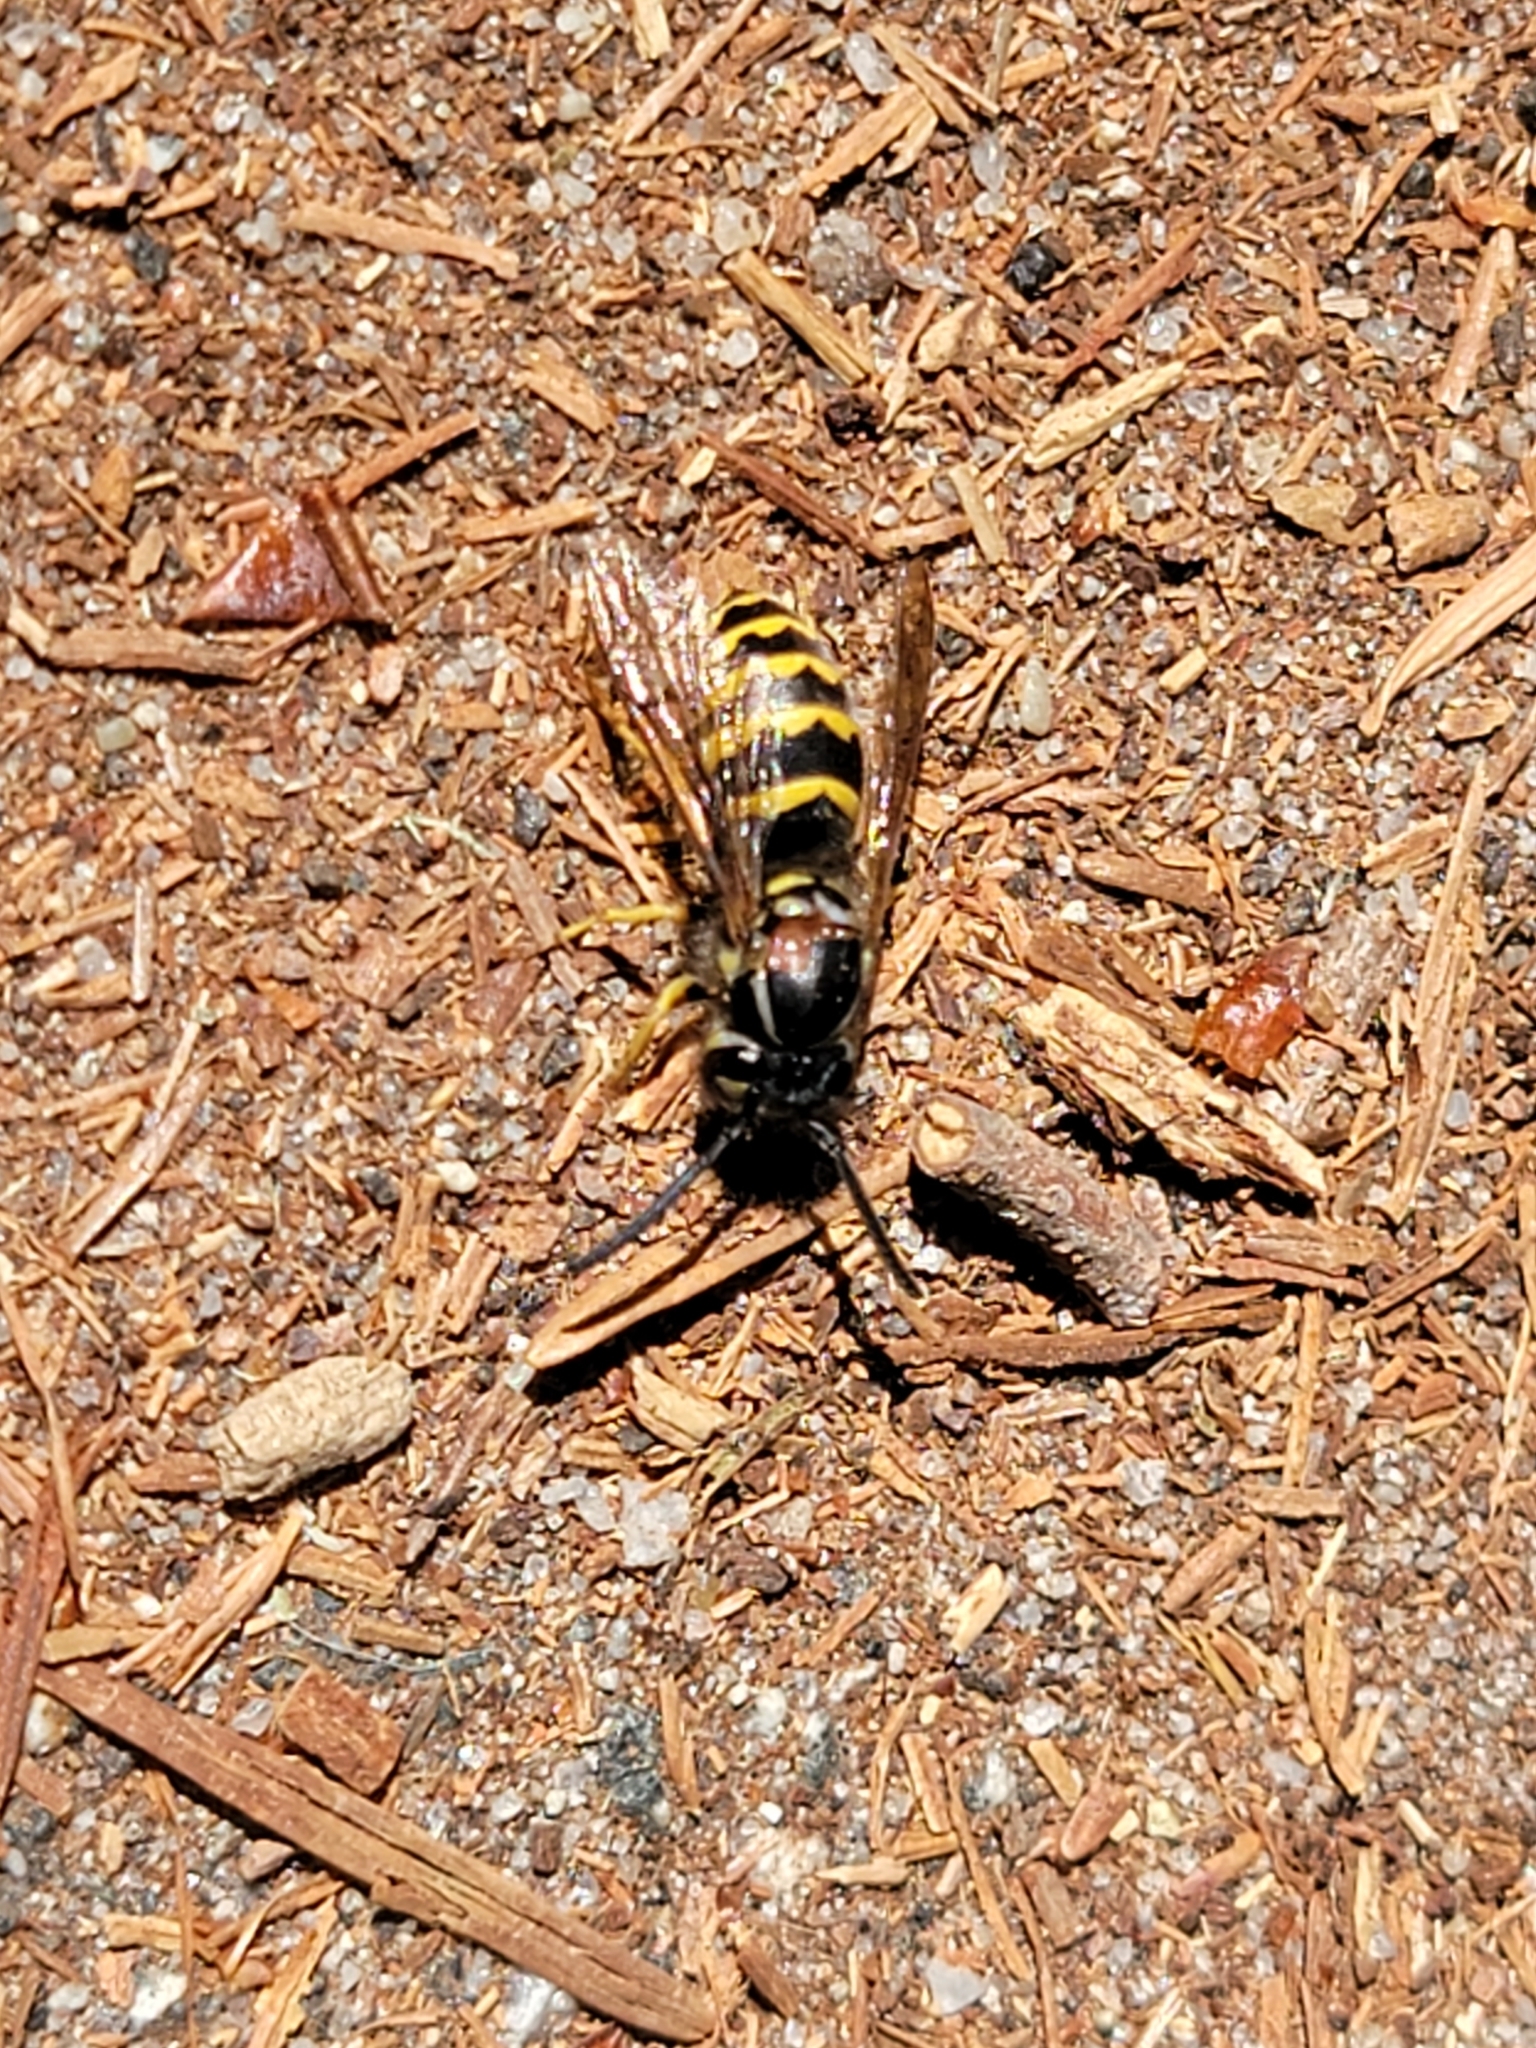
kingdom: Animalia
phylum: Arthropoda
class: Insecta
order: Hymenoptera
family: Vespidae
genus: Vespula
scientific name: Vespula alascensis
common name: Alaska yellowjacket
